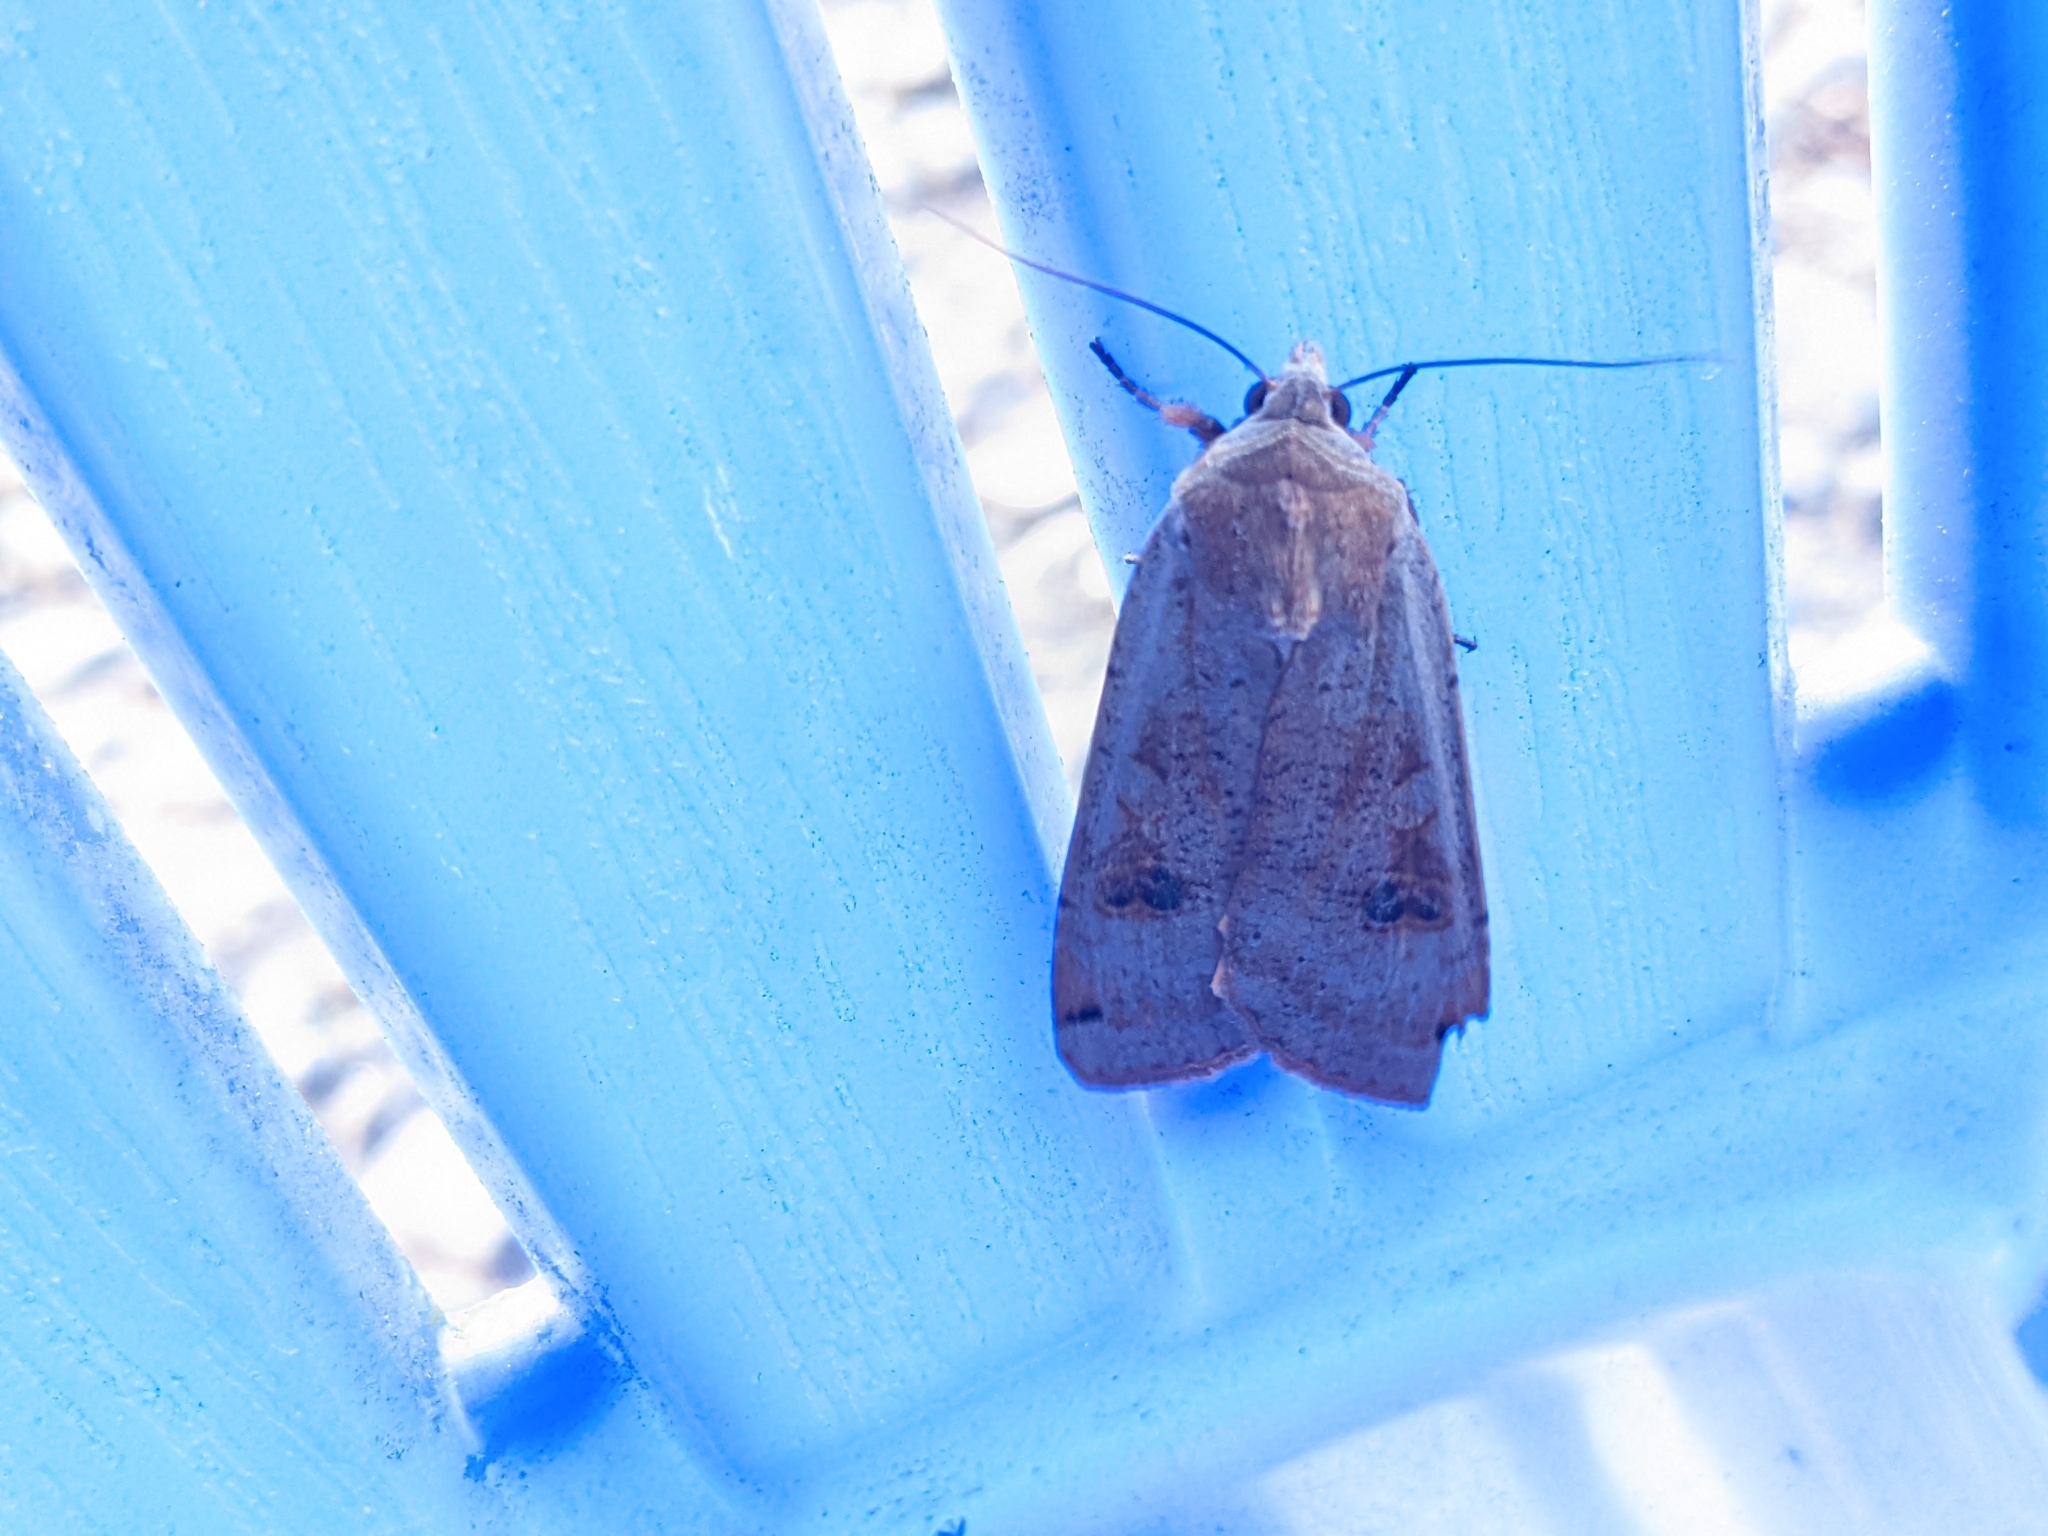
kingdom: Animalia
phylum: Arthropoda
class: Insecta
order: Lepidoptera
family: Noctuidae
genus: Noctua
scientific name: Noctua pronuba
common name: Large yellow underwing
